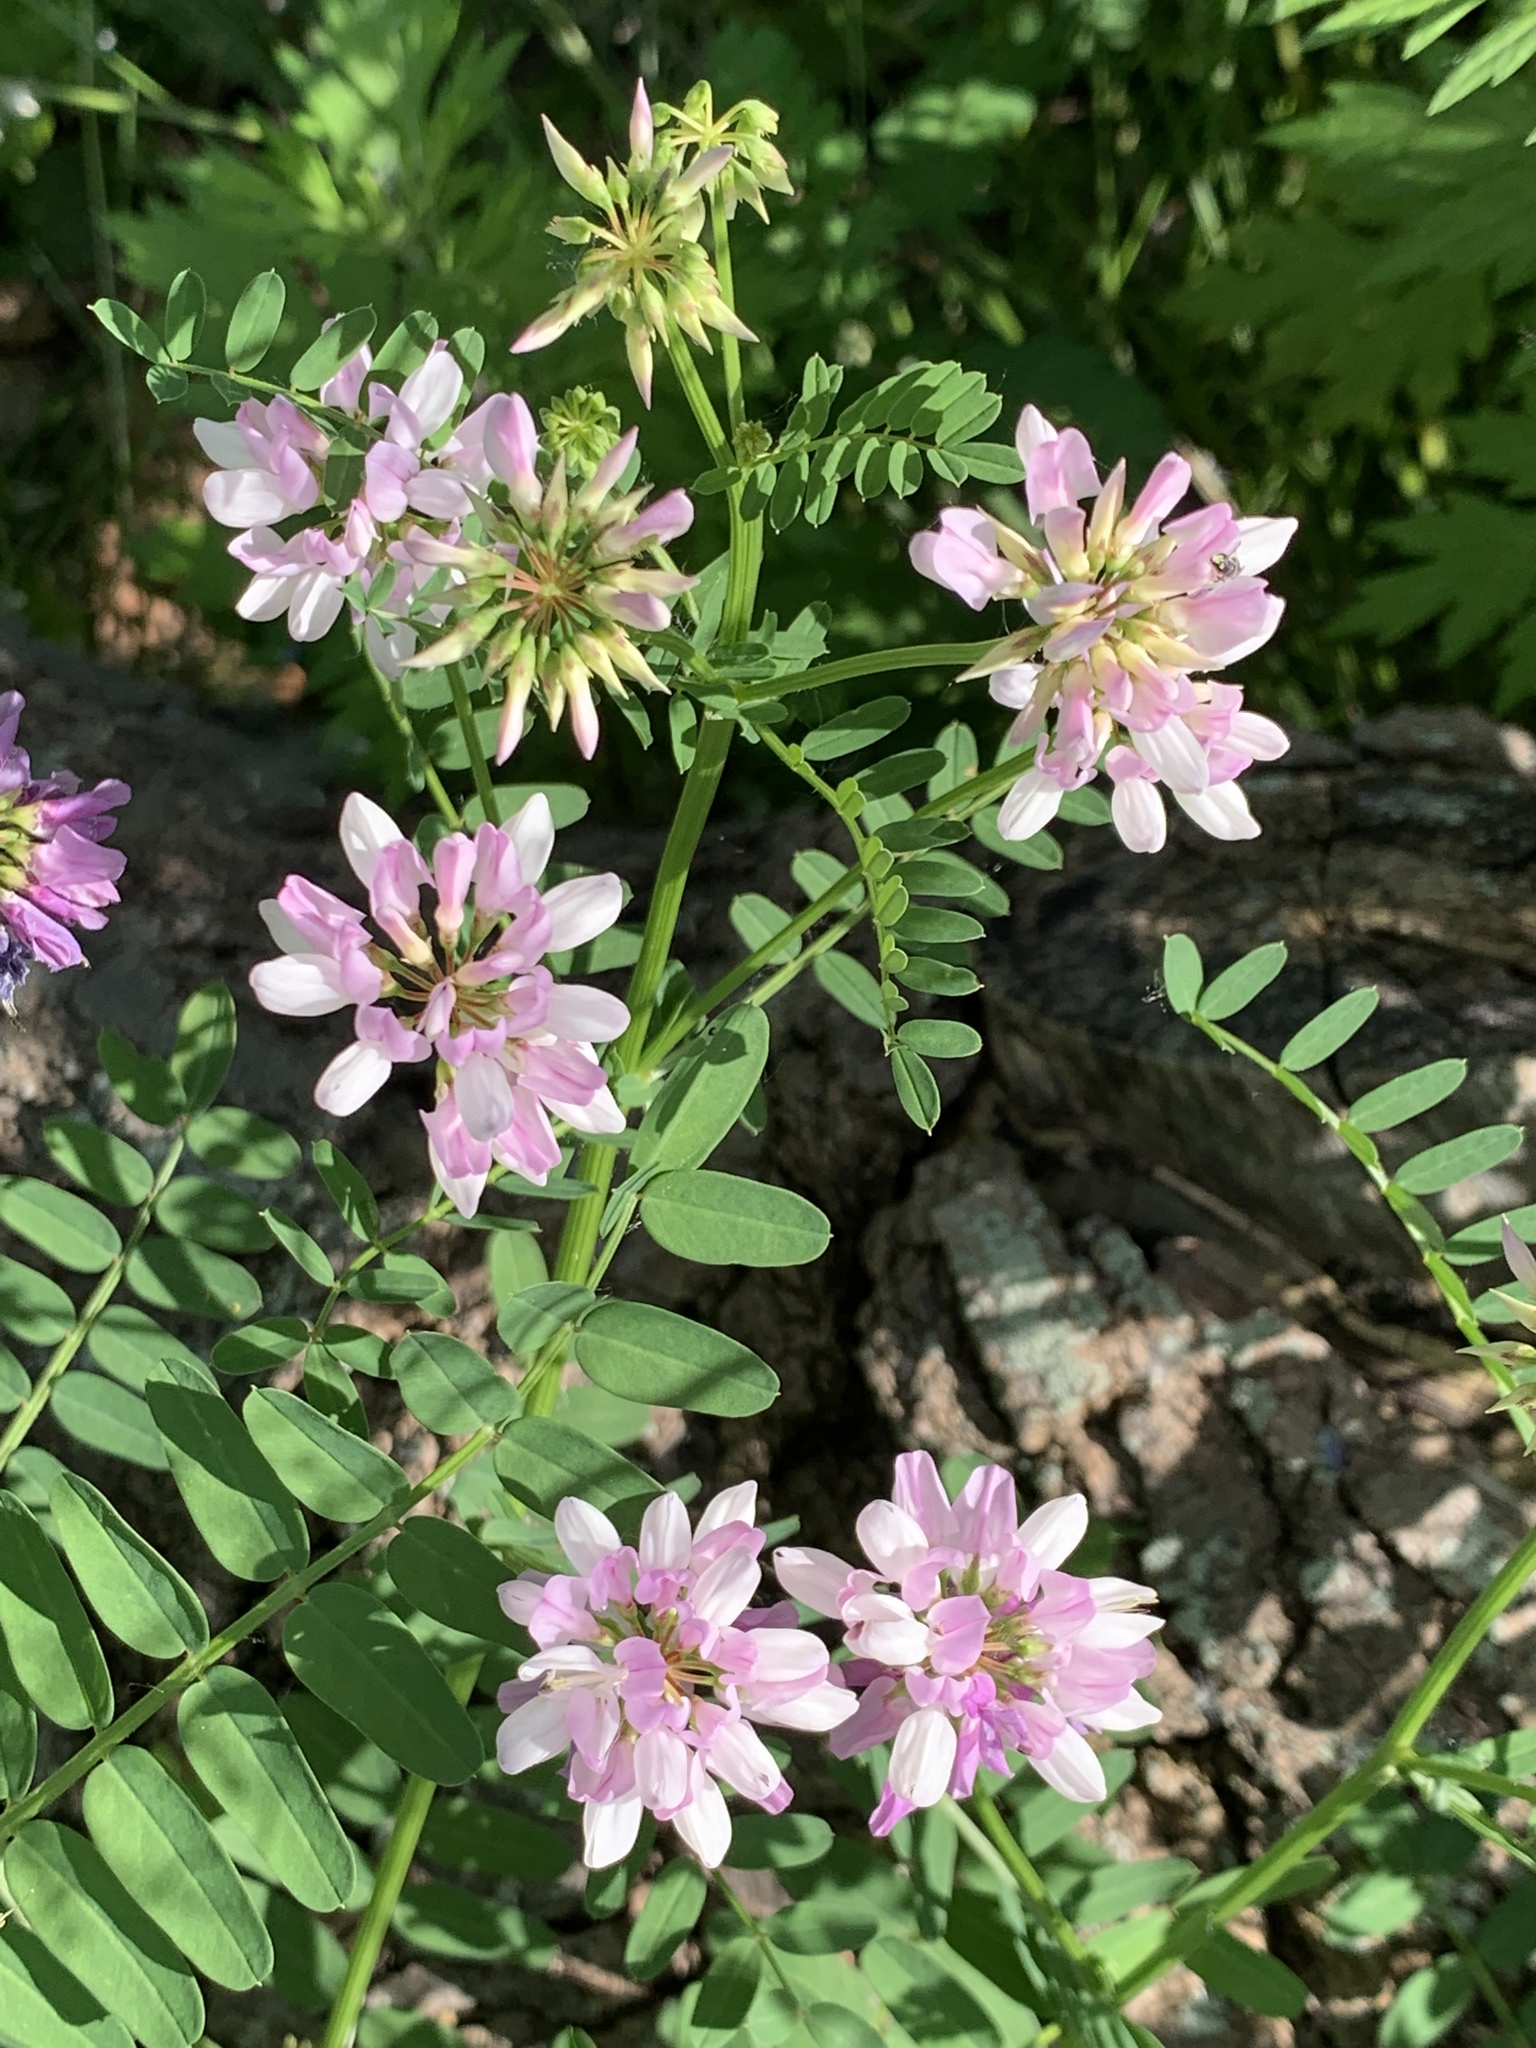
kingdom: Plantae
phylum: Tracheophyta
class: Magnoliopsida
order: Fabales
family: Fabaceae
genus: Coronilla
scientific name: Coronilla varia
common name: Crownvetch
